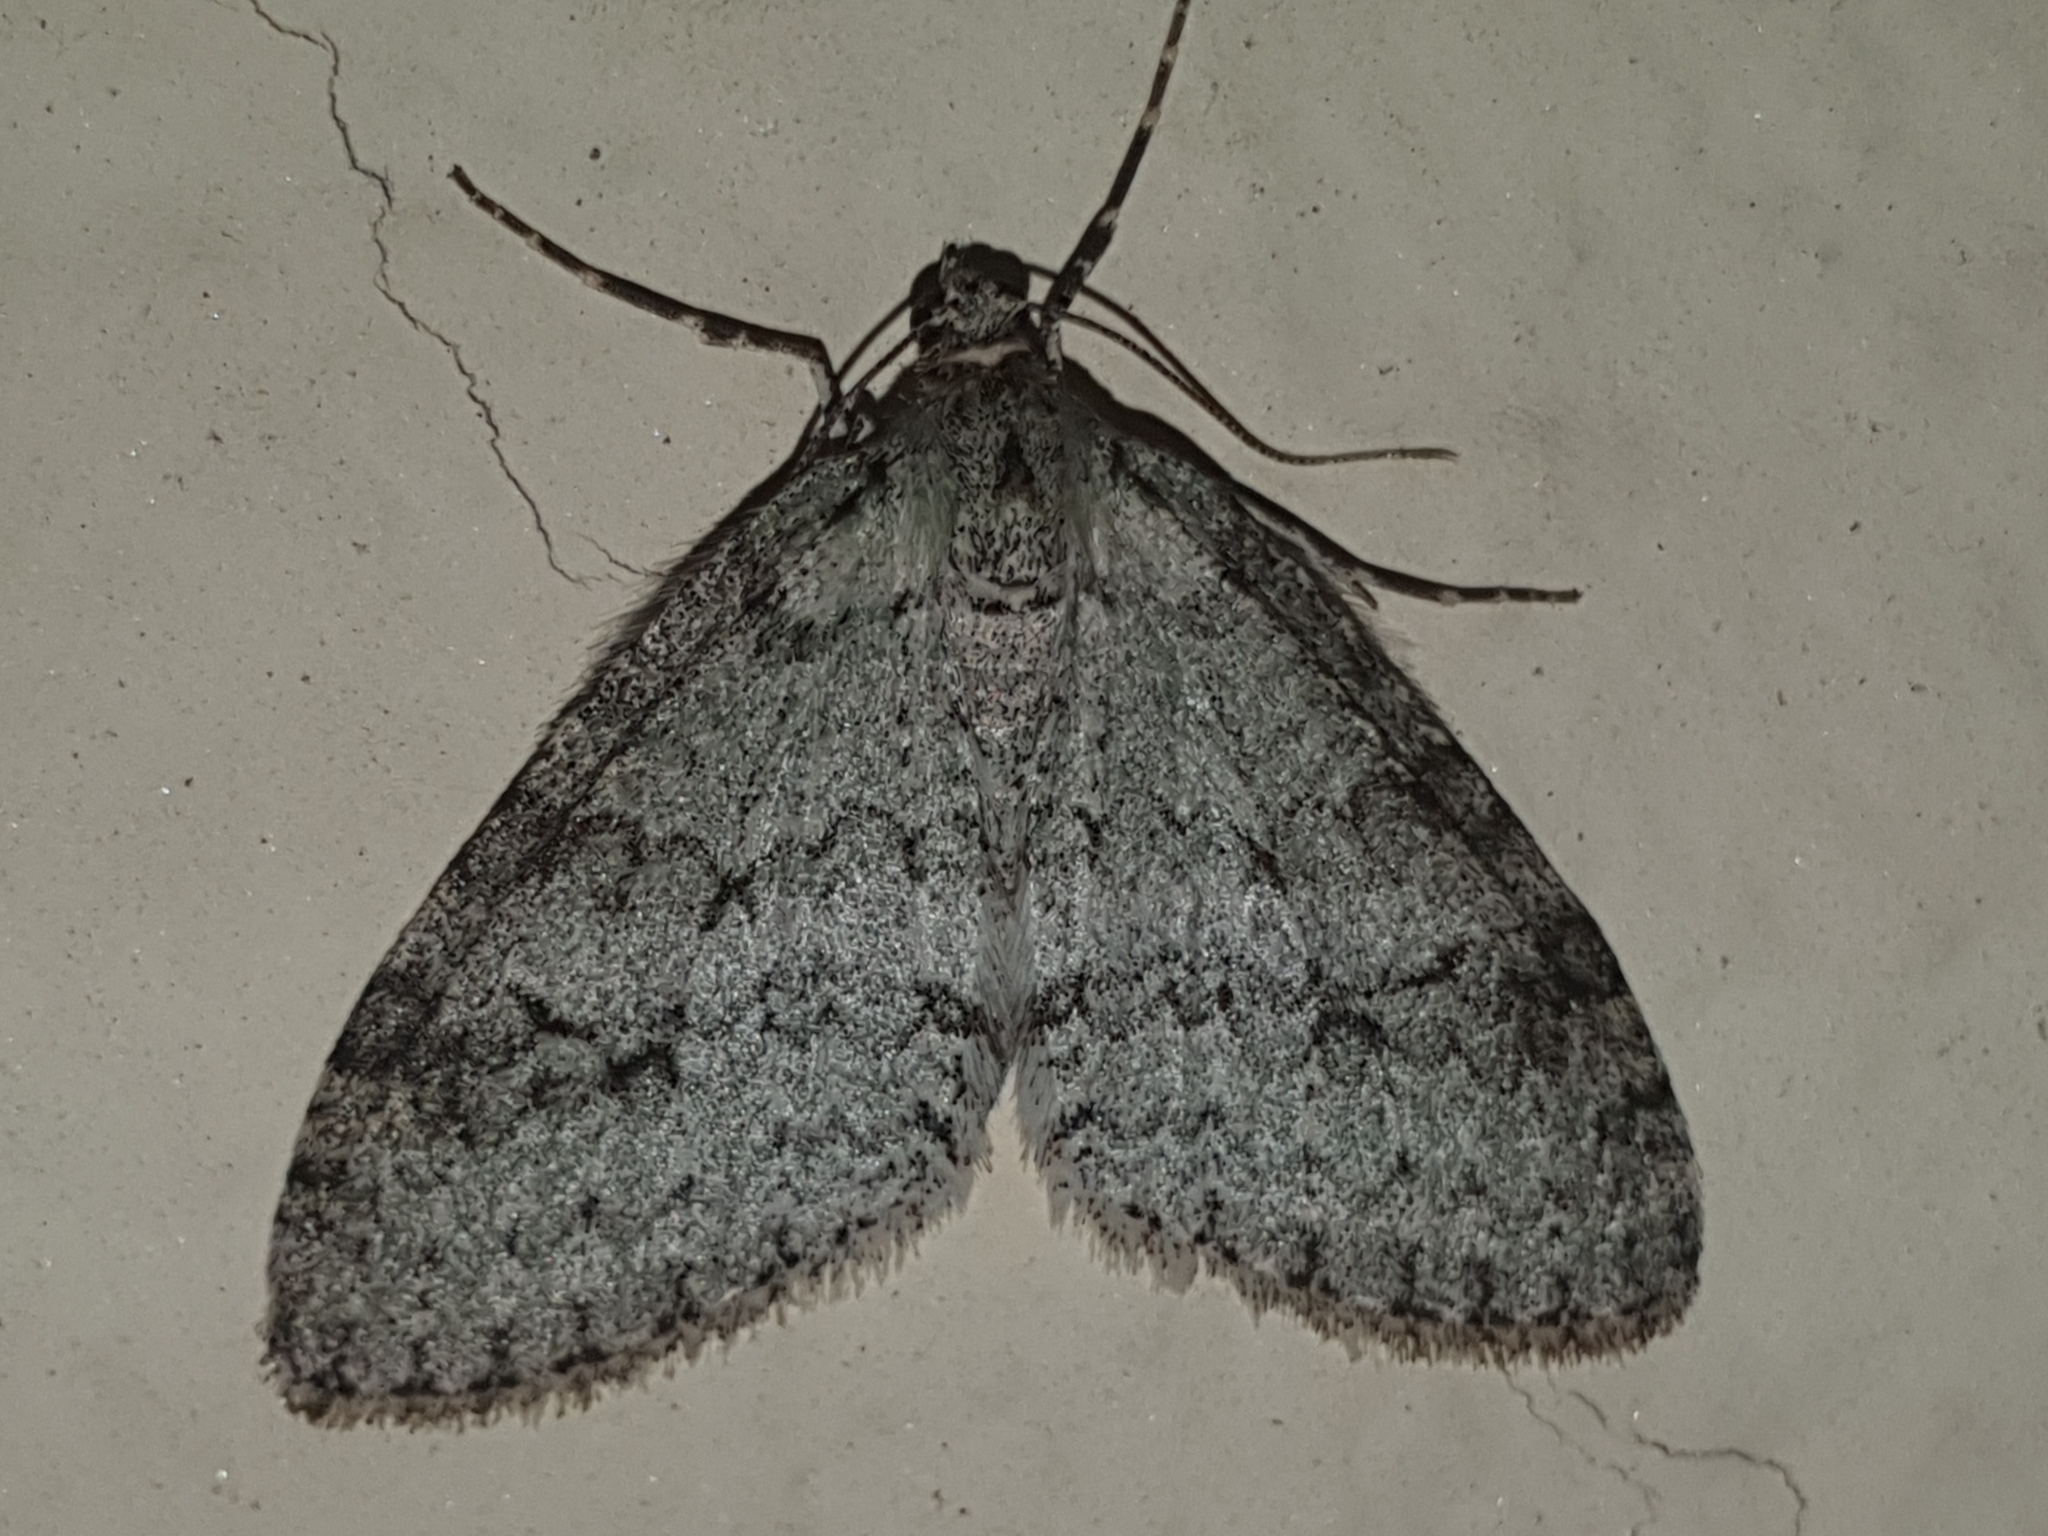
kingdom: Animalia
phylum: Arthropoda
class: Insecta
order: Lepidoptera
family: Geometridae
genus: Trichopteryx
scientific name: Trichopteryx carpinata
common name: Early tooth-striped
